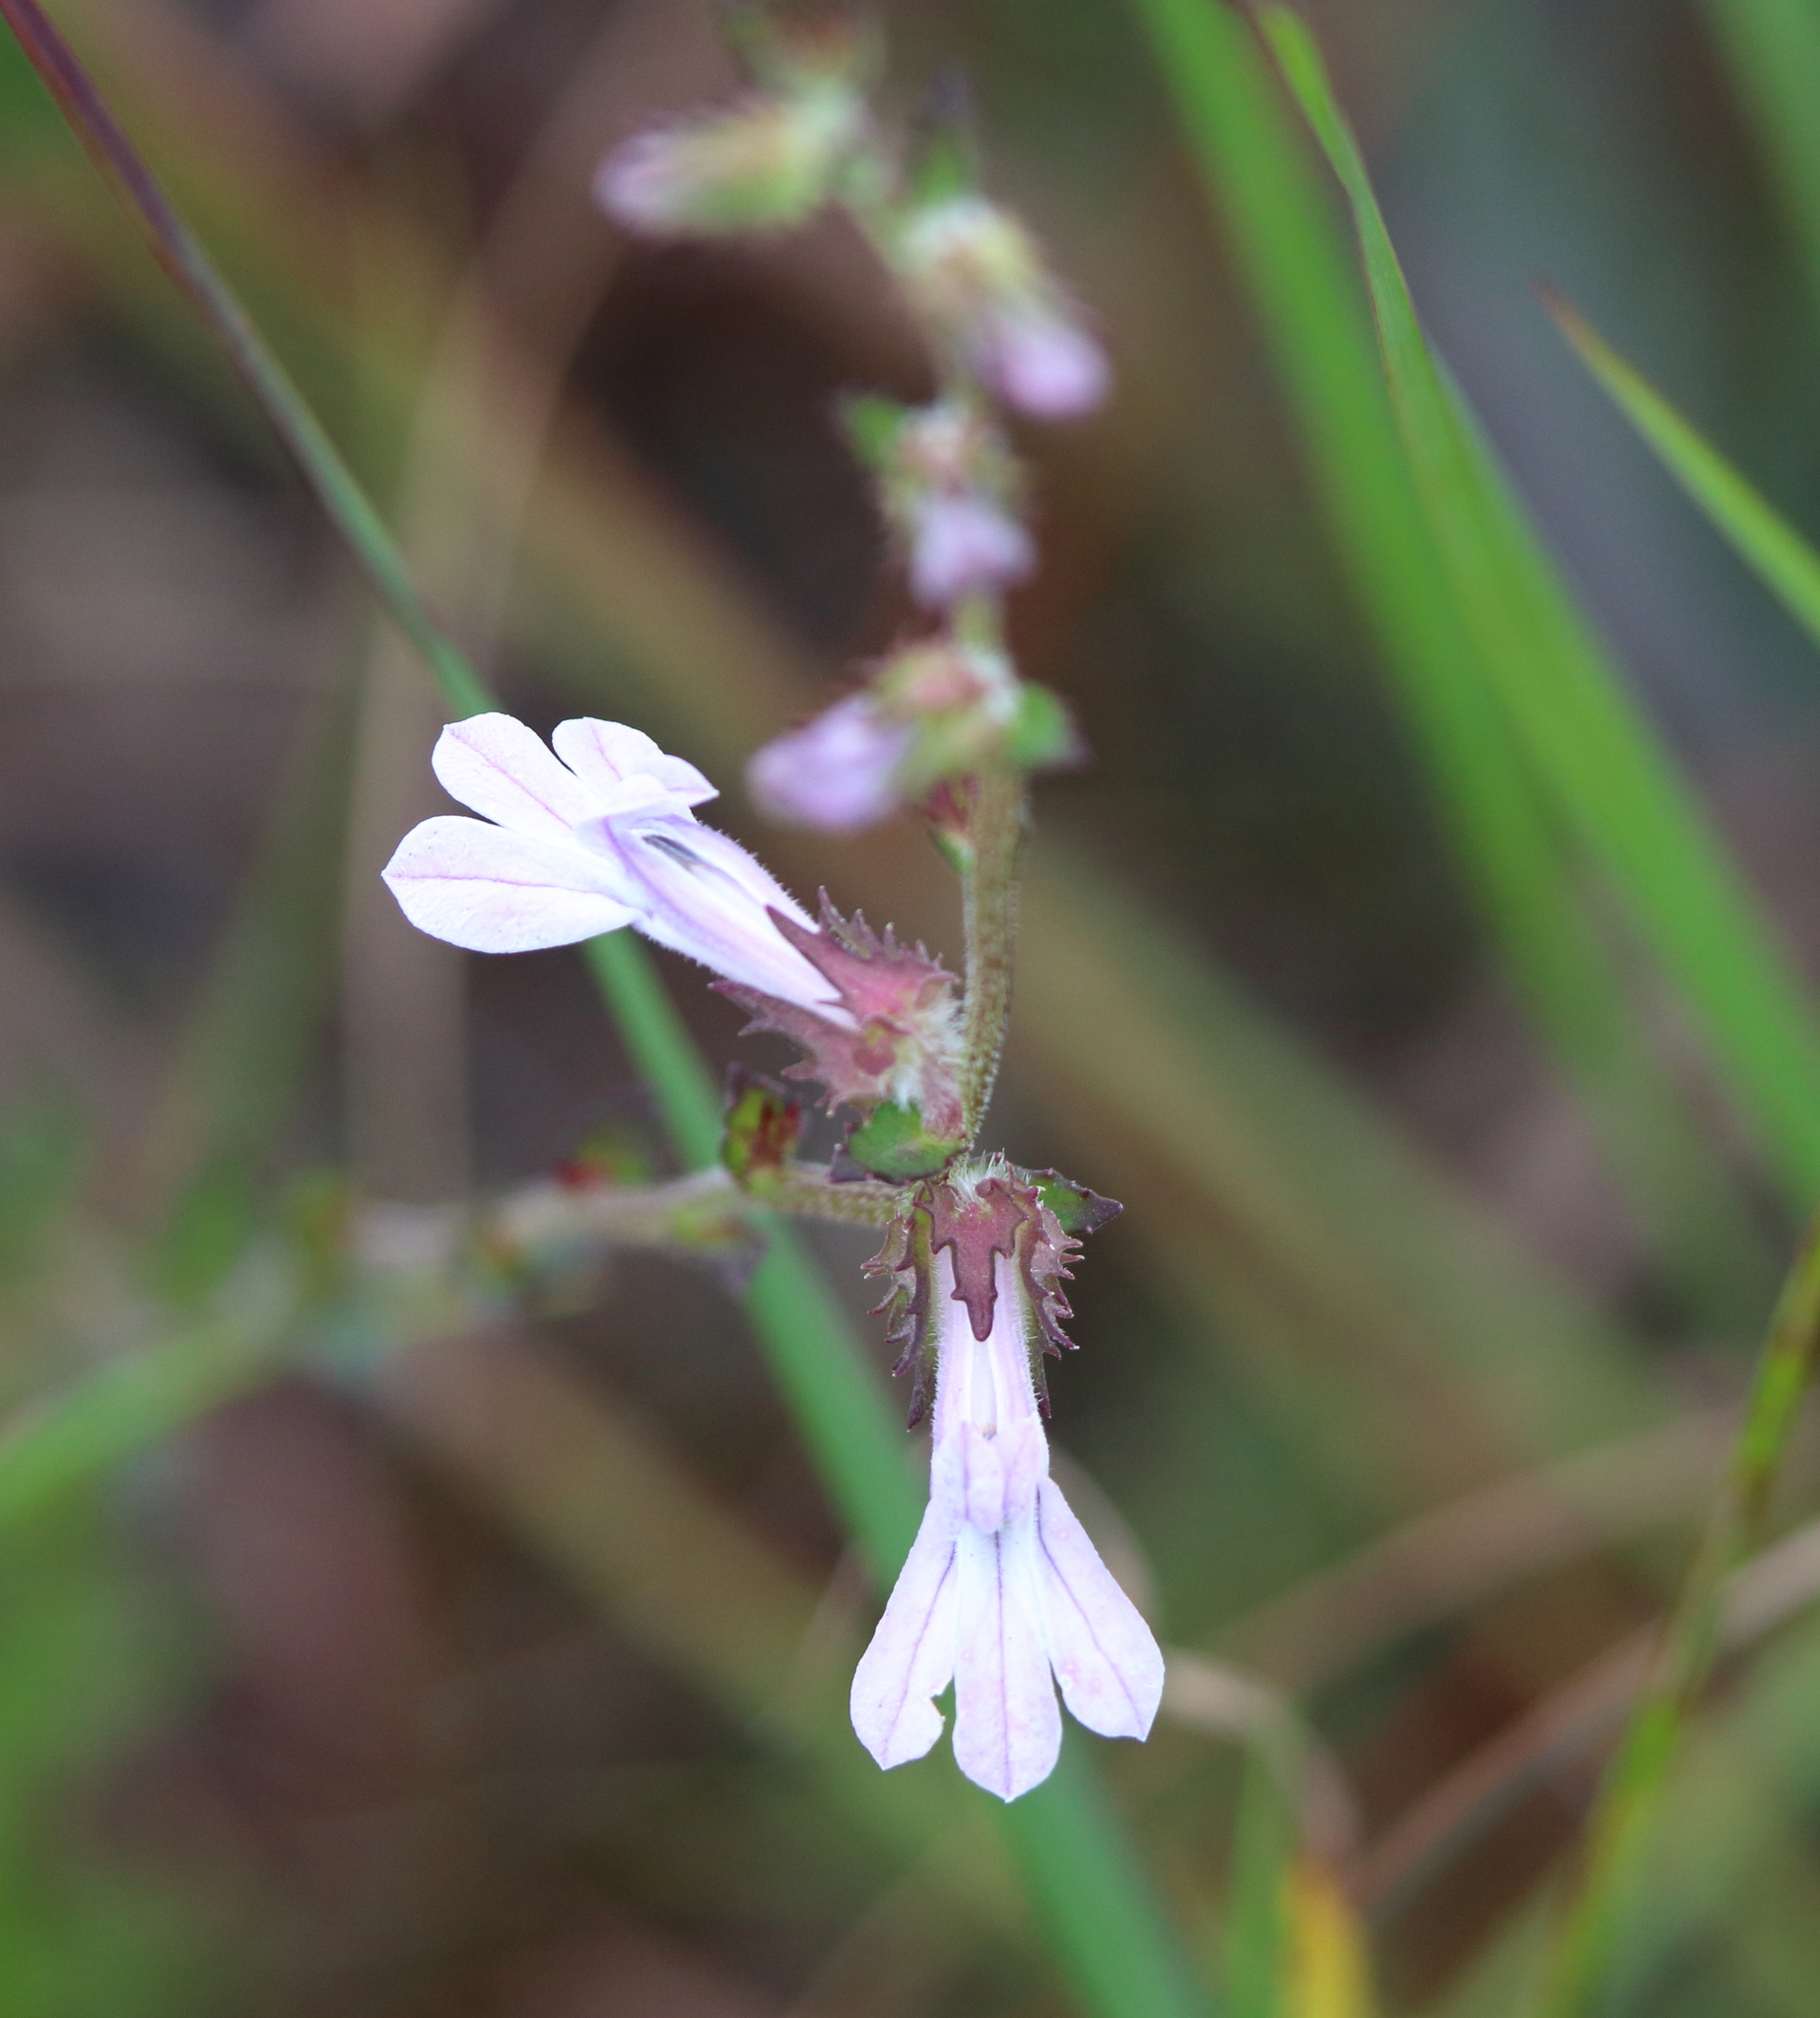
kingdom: Plantae
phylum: Tracheophyta
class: Magnoliopsida
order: Asterales
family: Campanulaceae
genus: Lobelia
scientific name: Lobelia brevifolia
